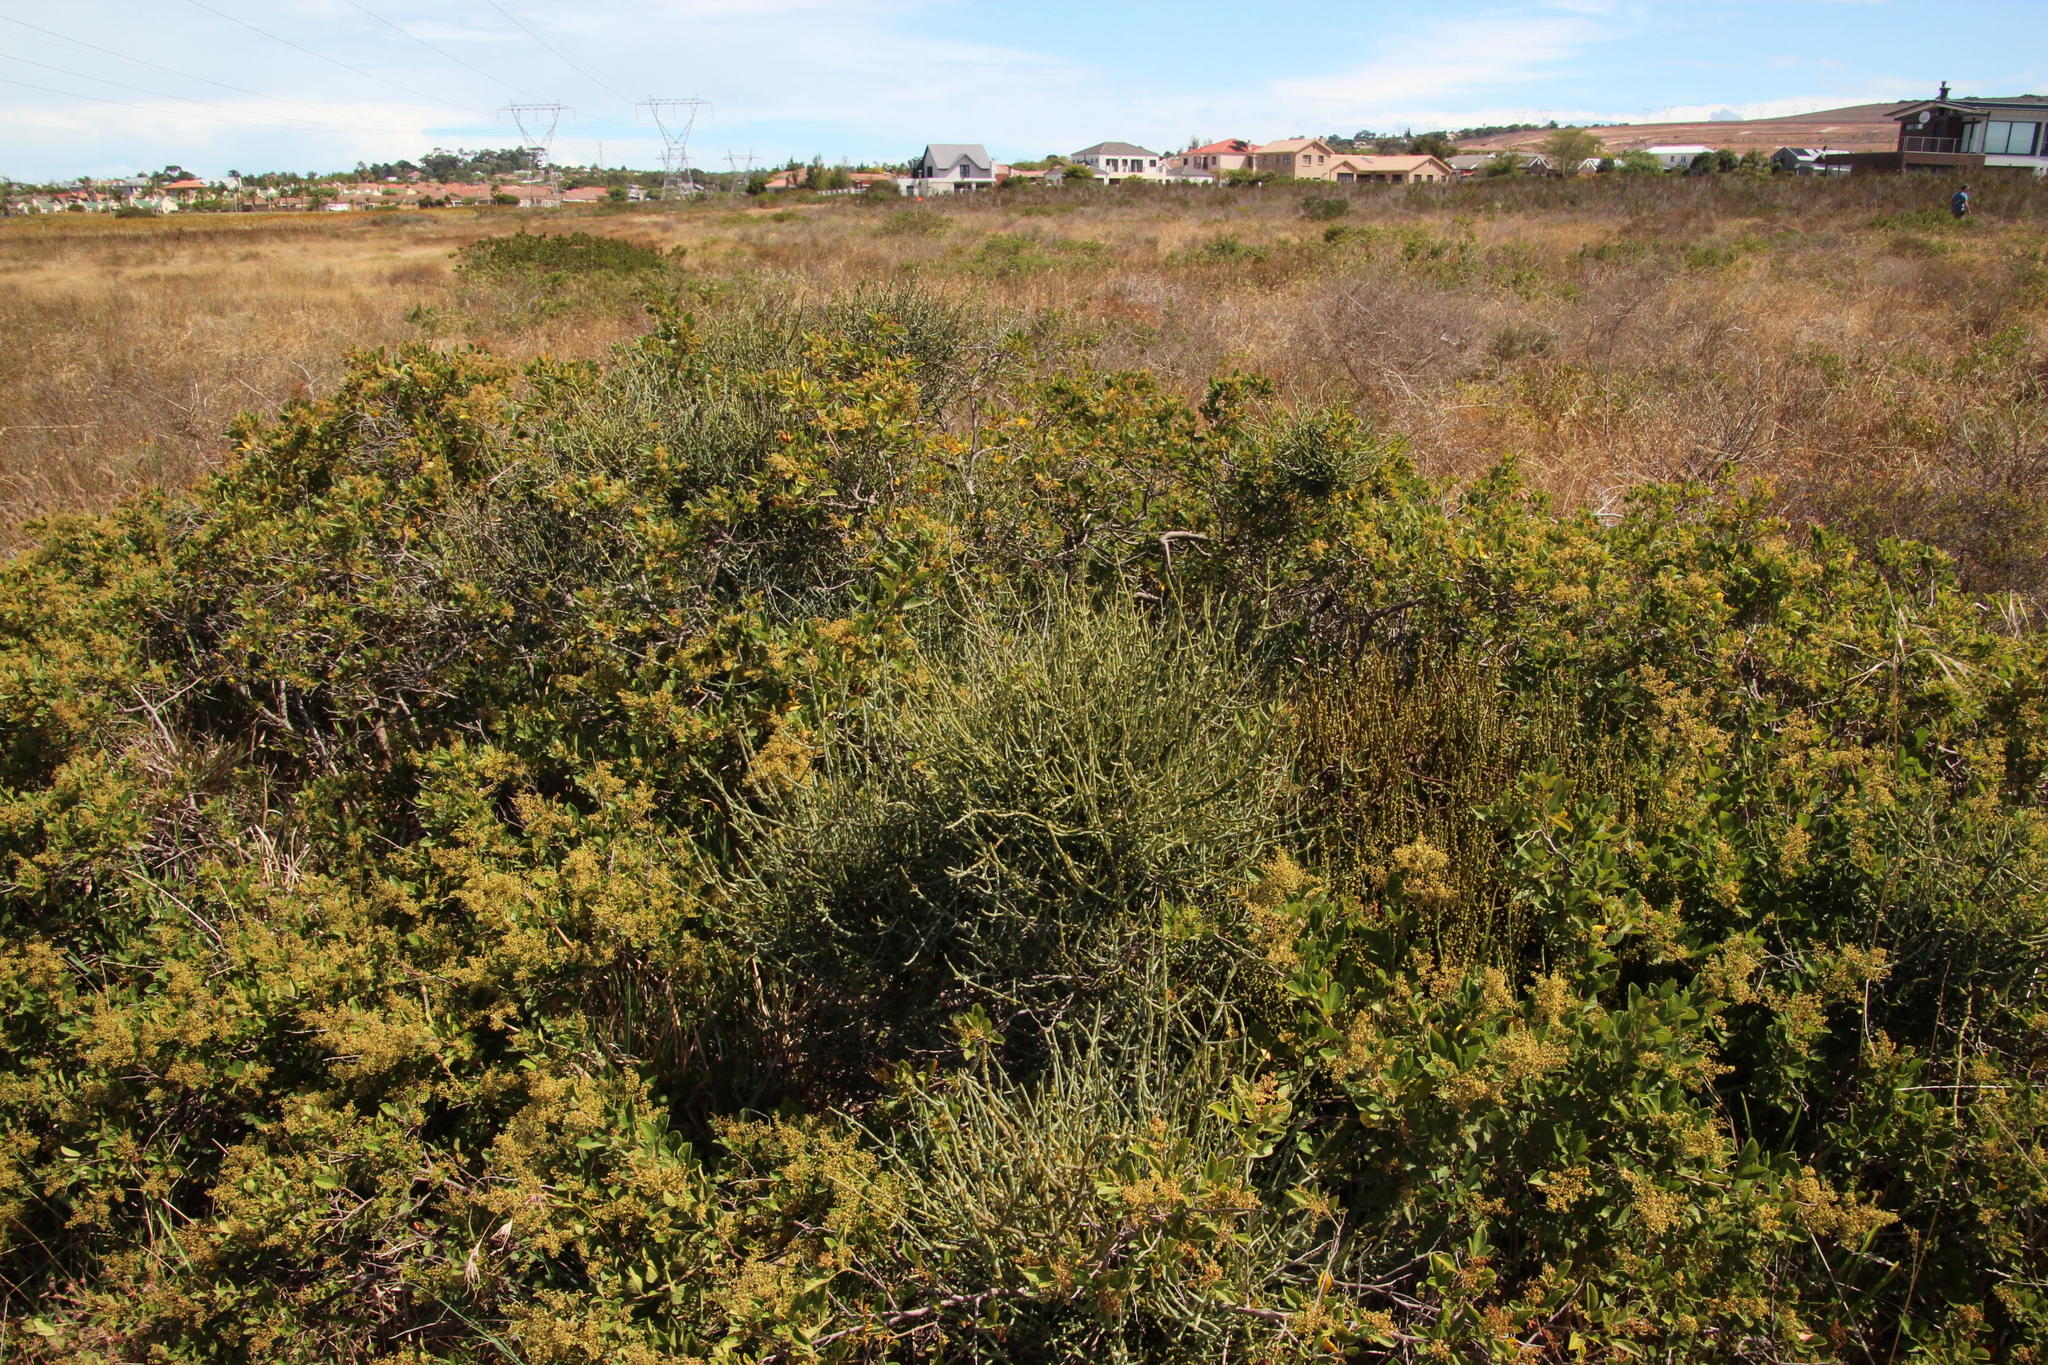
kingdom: Plantae
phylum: Tracheophyta
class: Magnoliopsida
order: Santalales
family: Viscaceae
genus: Viscum
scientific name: Viscum capense
